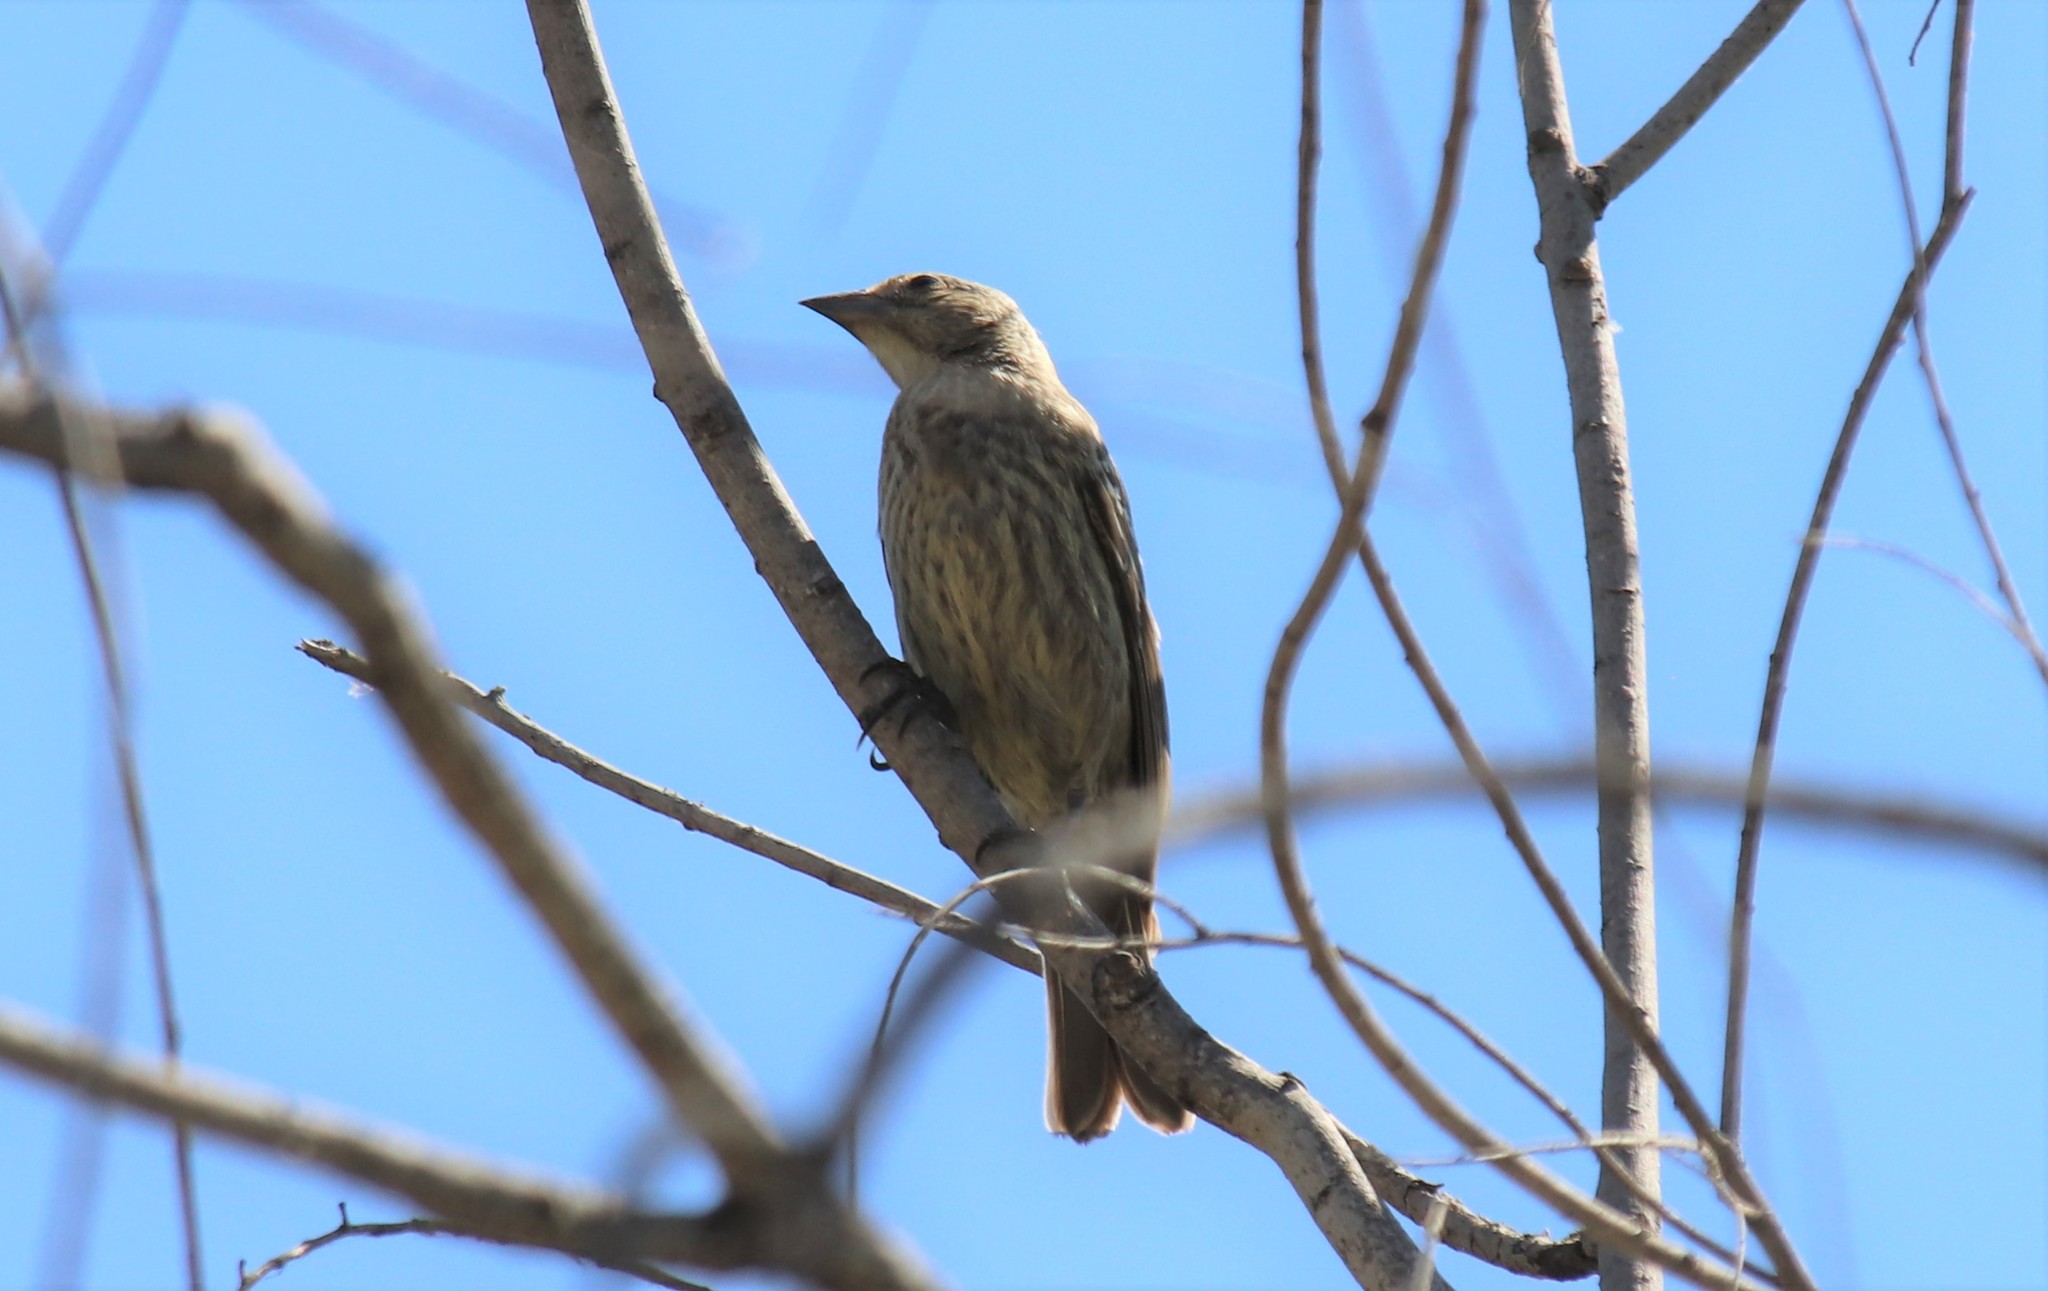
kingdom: Animalia
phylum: Chordata
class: Aves
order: Passeriformes
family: Icteridae
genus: Molothrus
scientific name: Molothrus ater
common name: Brown-headed cowbird
